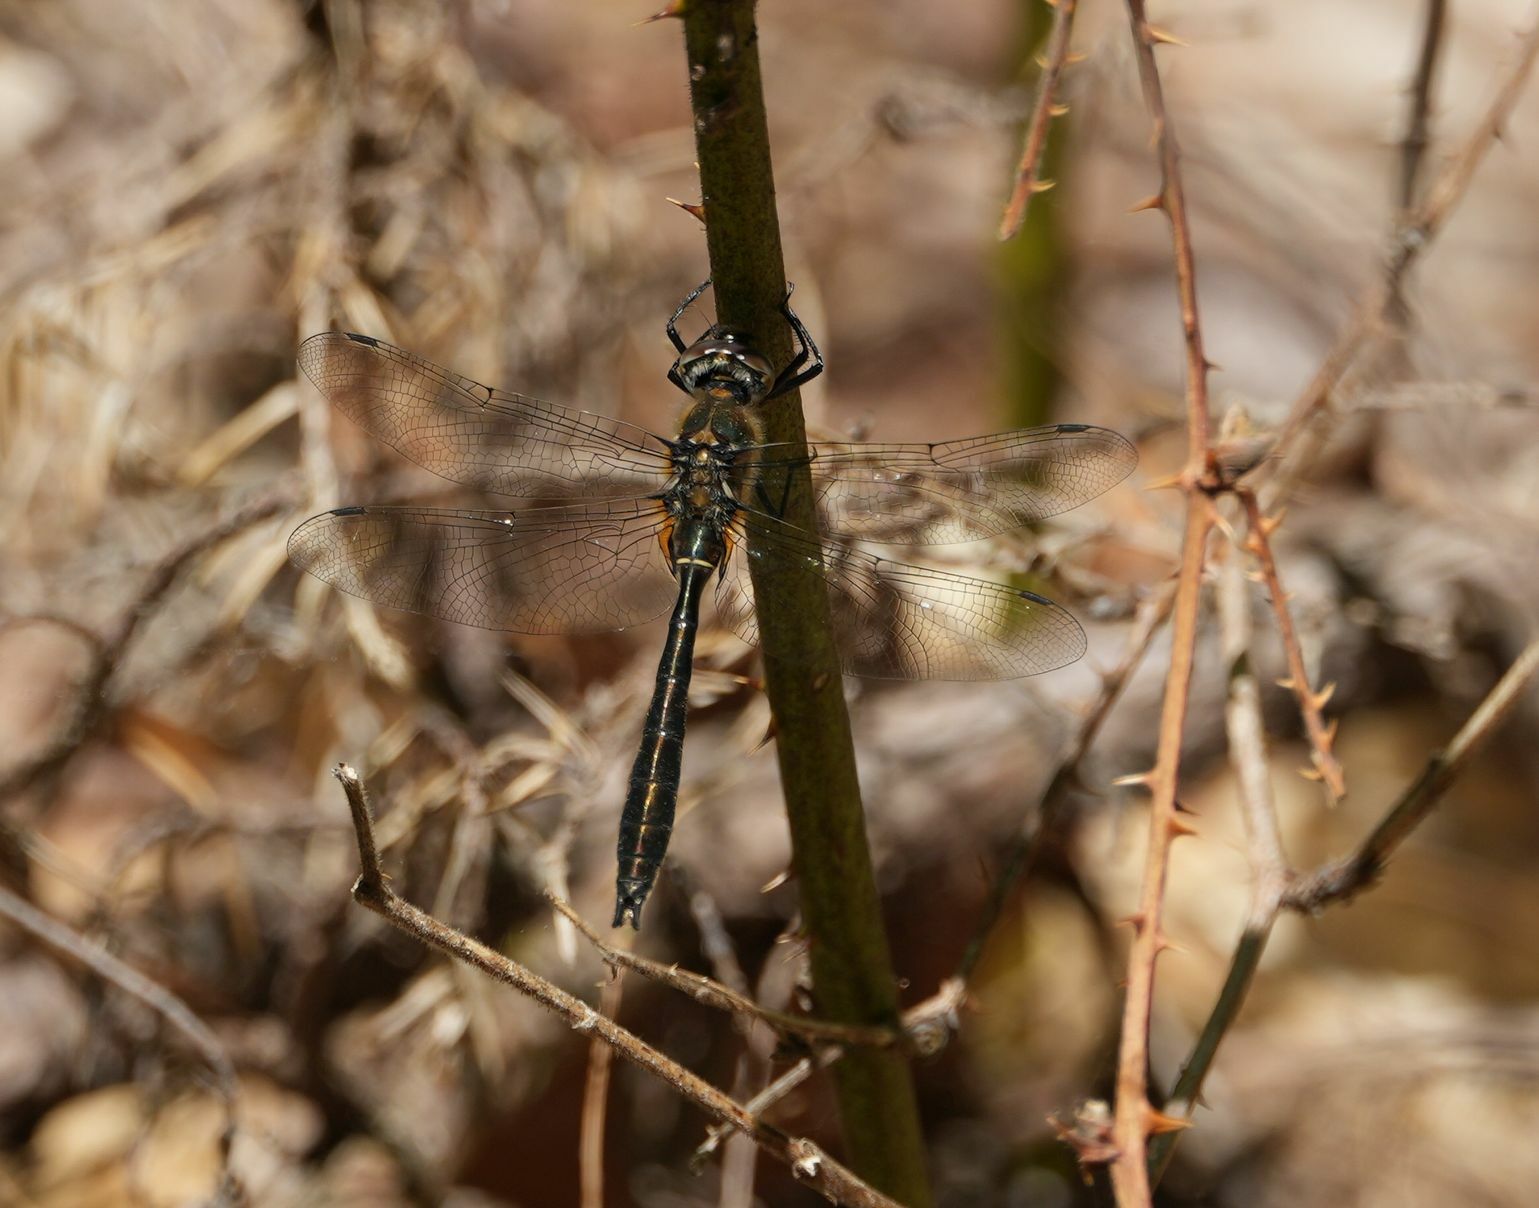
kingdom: Animalia
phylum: Arthropoda
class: Insecta
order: Odonata
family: Corduliidae
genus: Cordulia
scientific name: Cordulia shurtleffii
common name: American emerald
